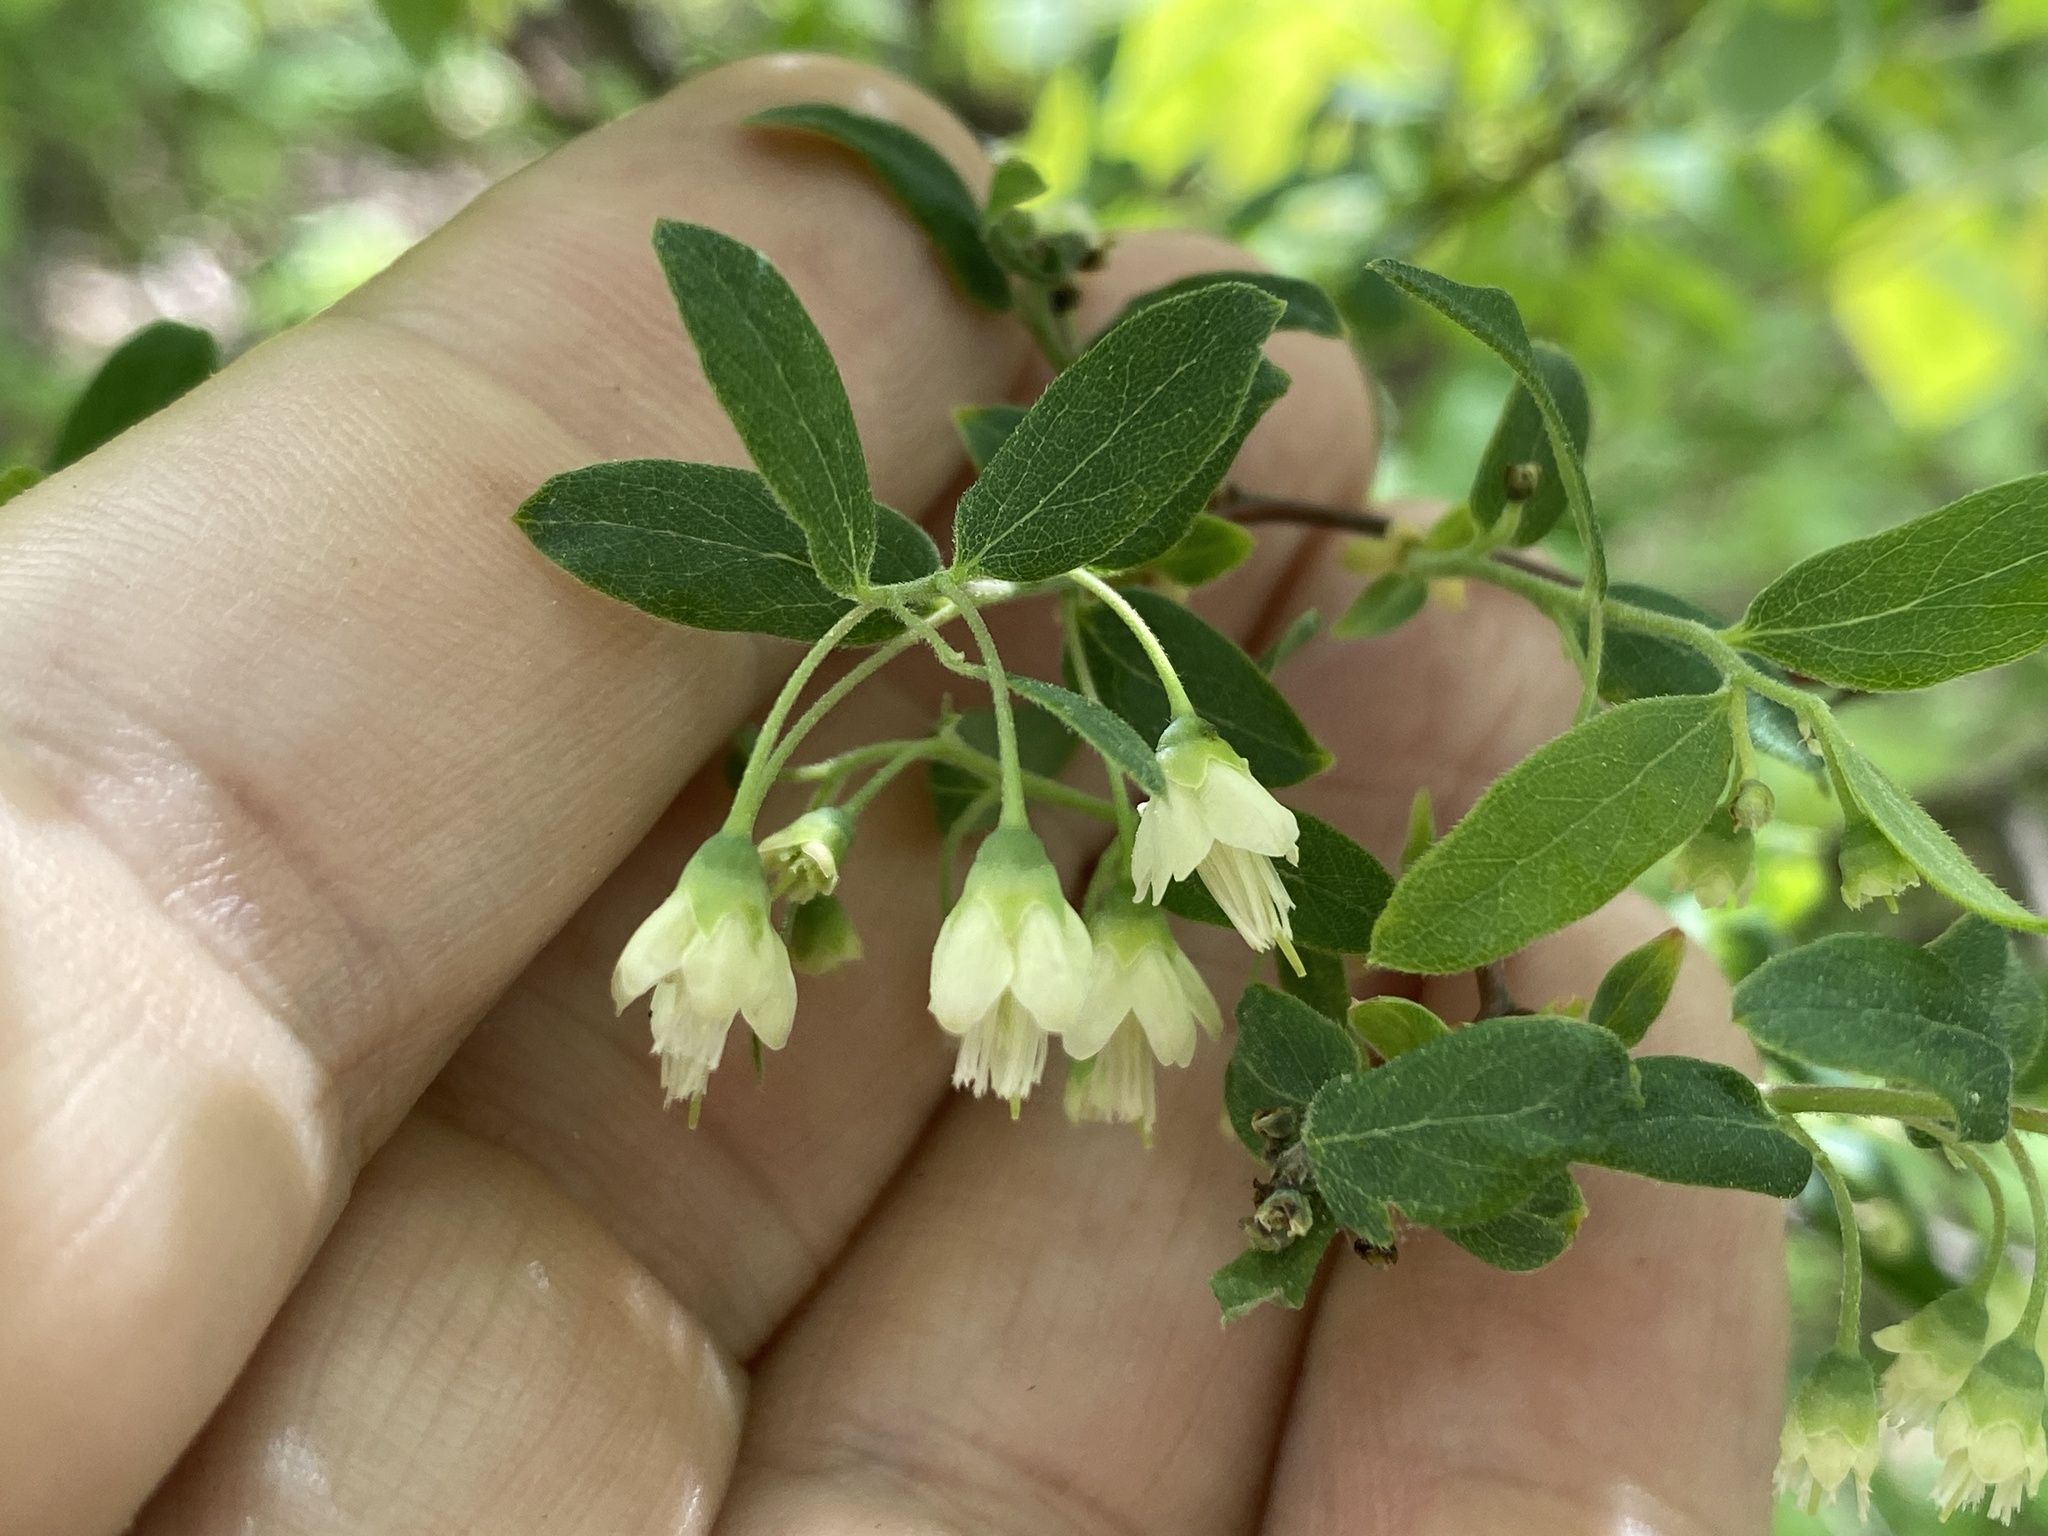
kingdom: Plantae
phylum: Tracheophyta
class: Magnoliopsida
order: Ericales
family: Ericaceae
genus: Vaccinium
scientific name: Vaccinium stamineum
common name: Deerberry
